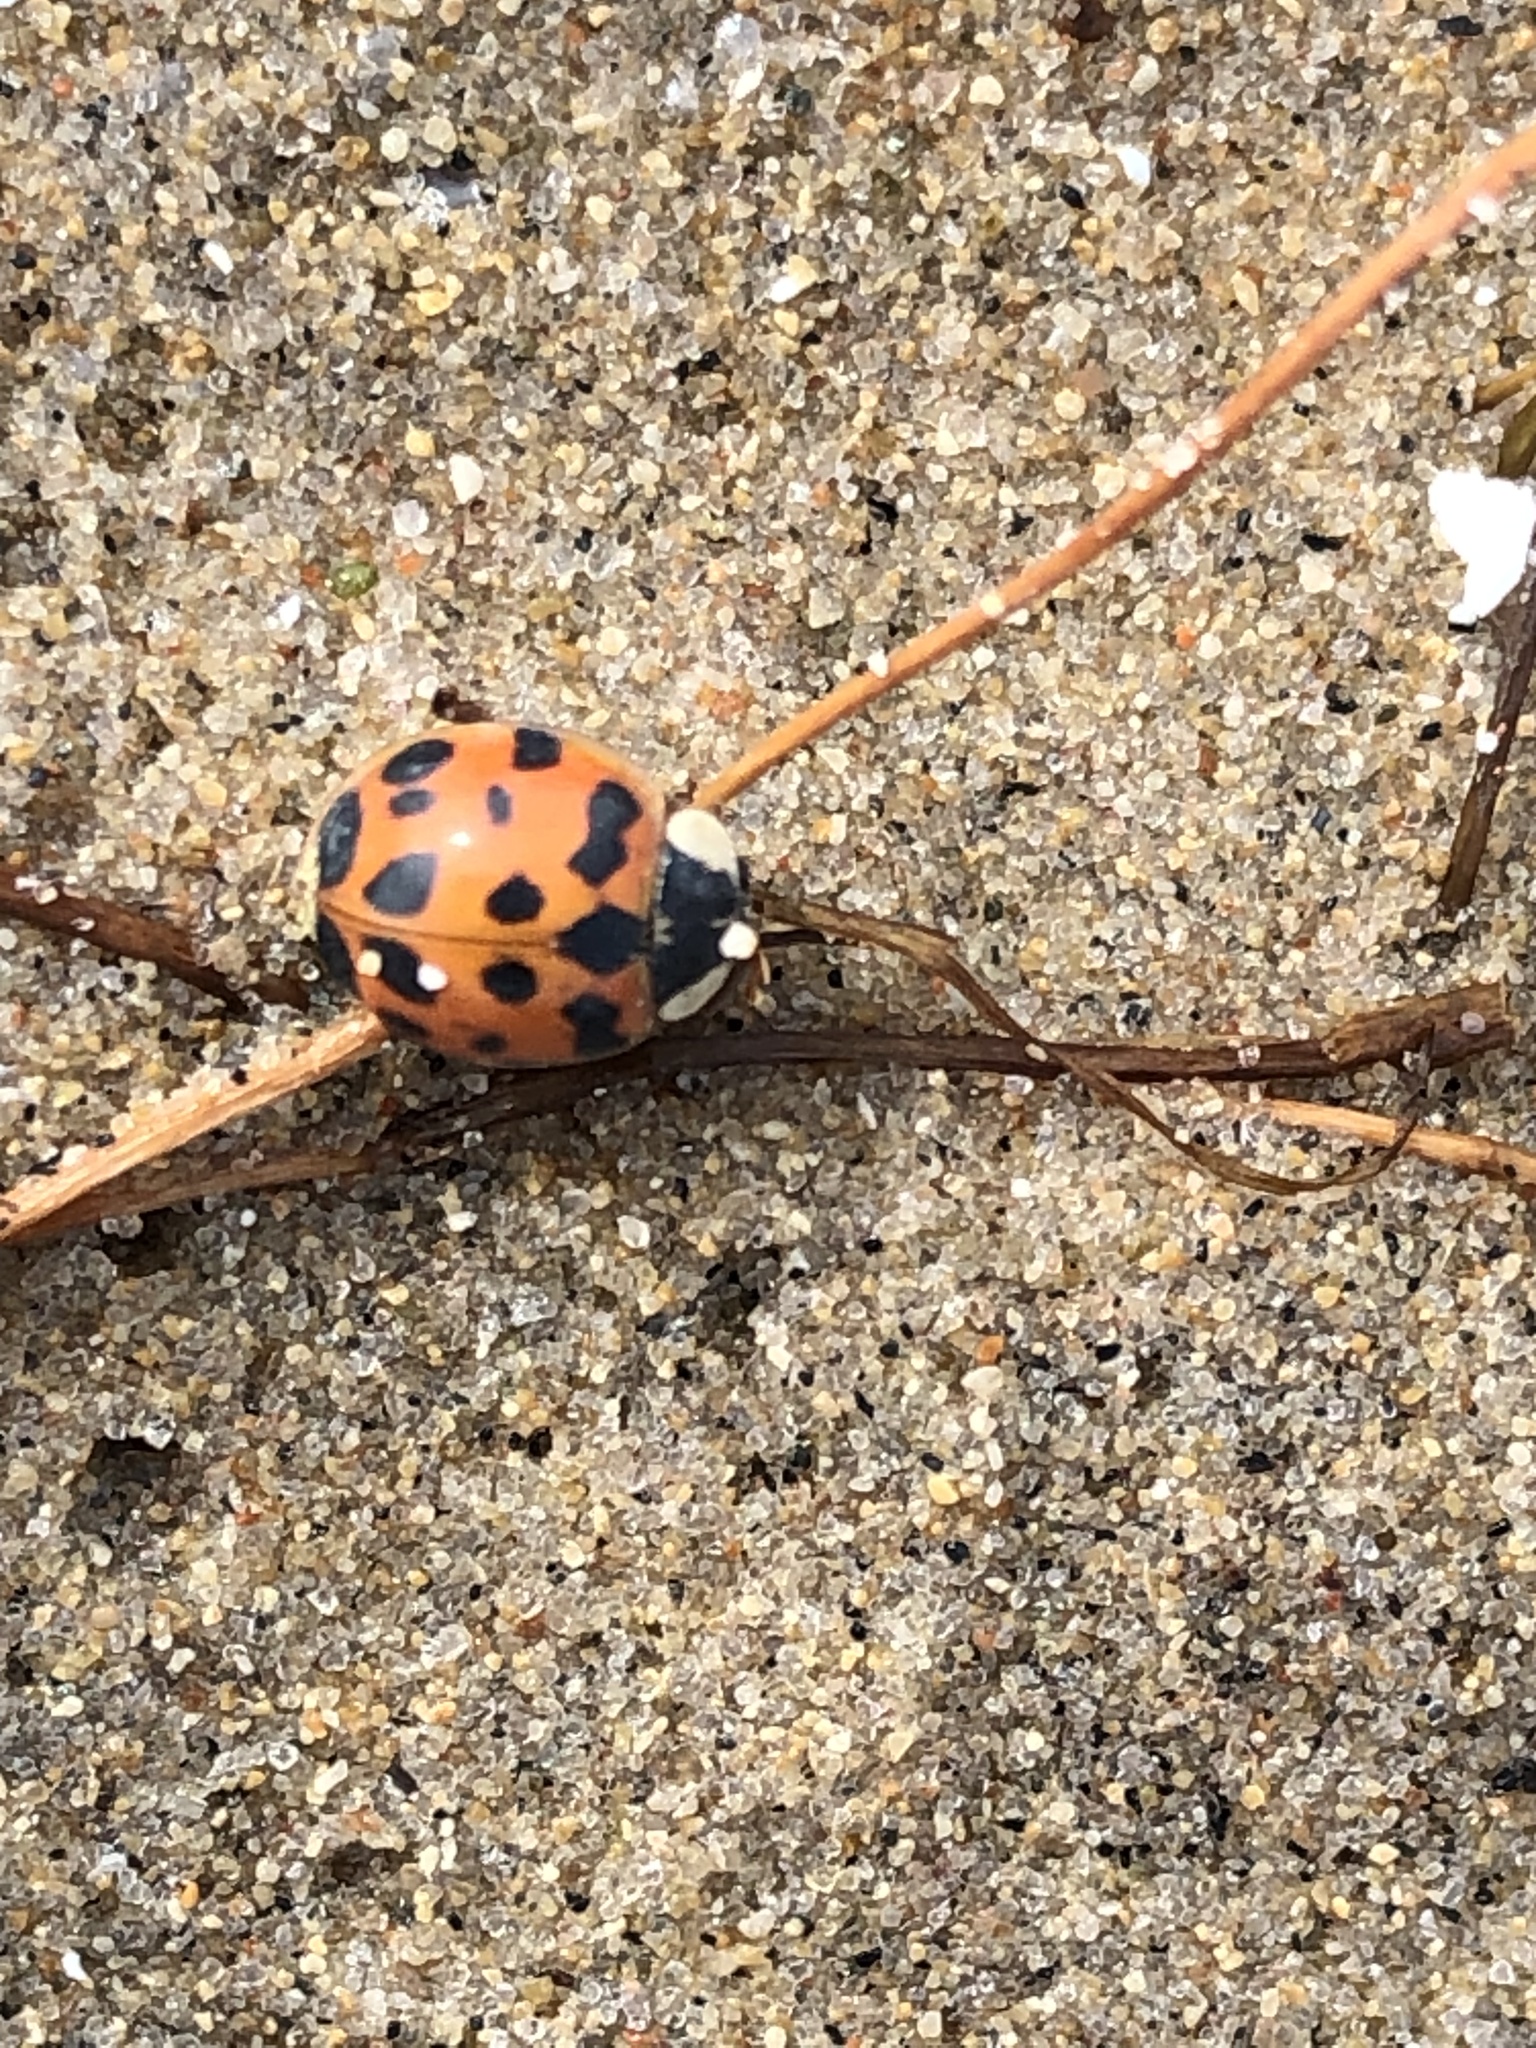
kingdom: Animalia
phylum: Arthropoda
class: Insecta
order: Coleoptera
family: Coccinellidae
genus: Harmonia
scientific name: Harmonia axyridis
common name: Harlequin ladybird
